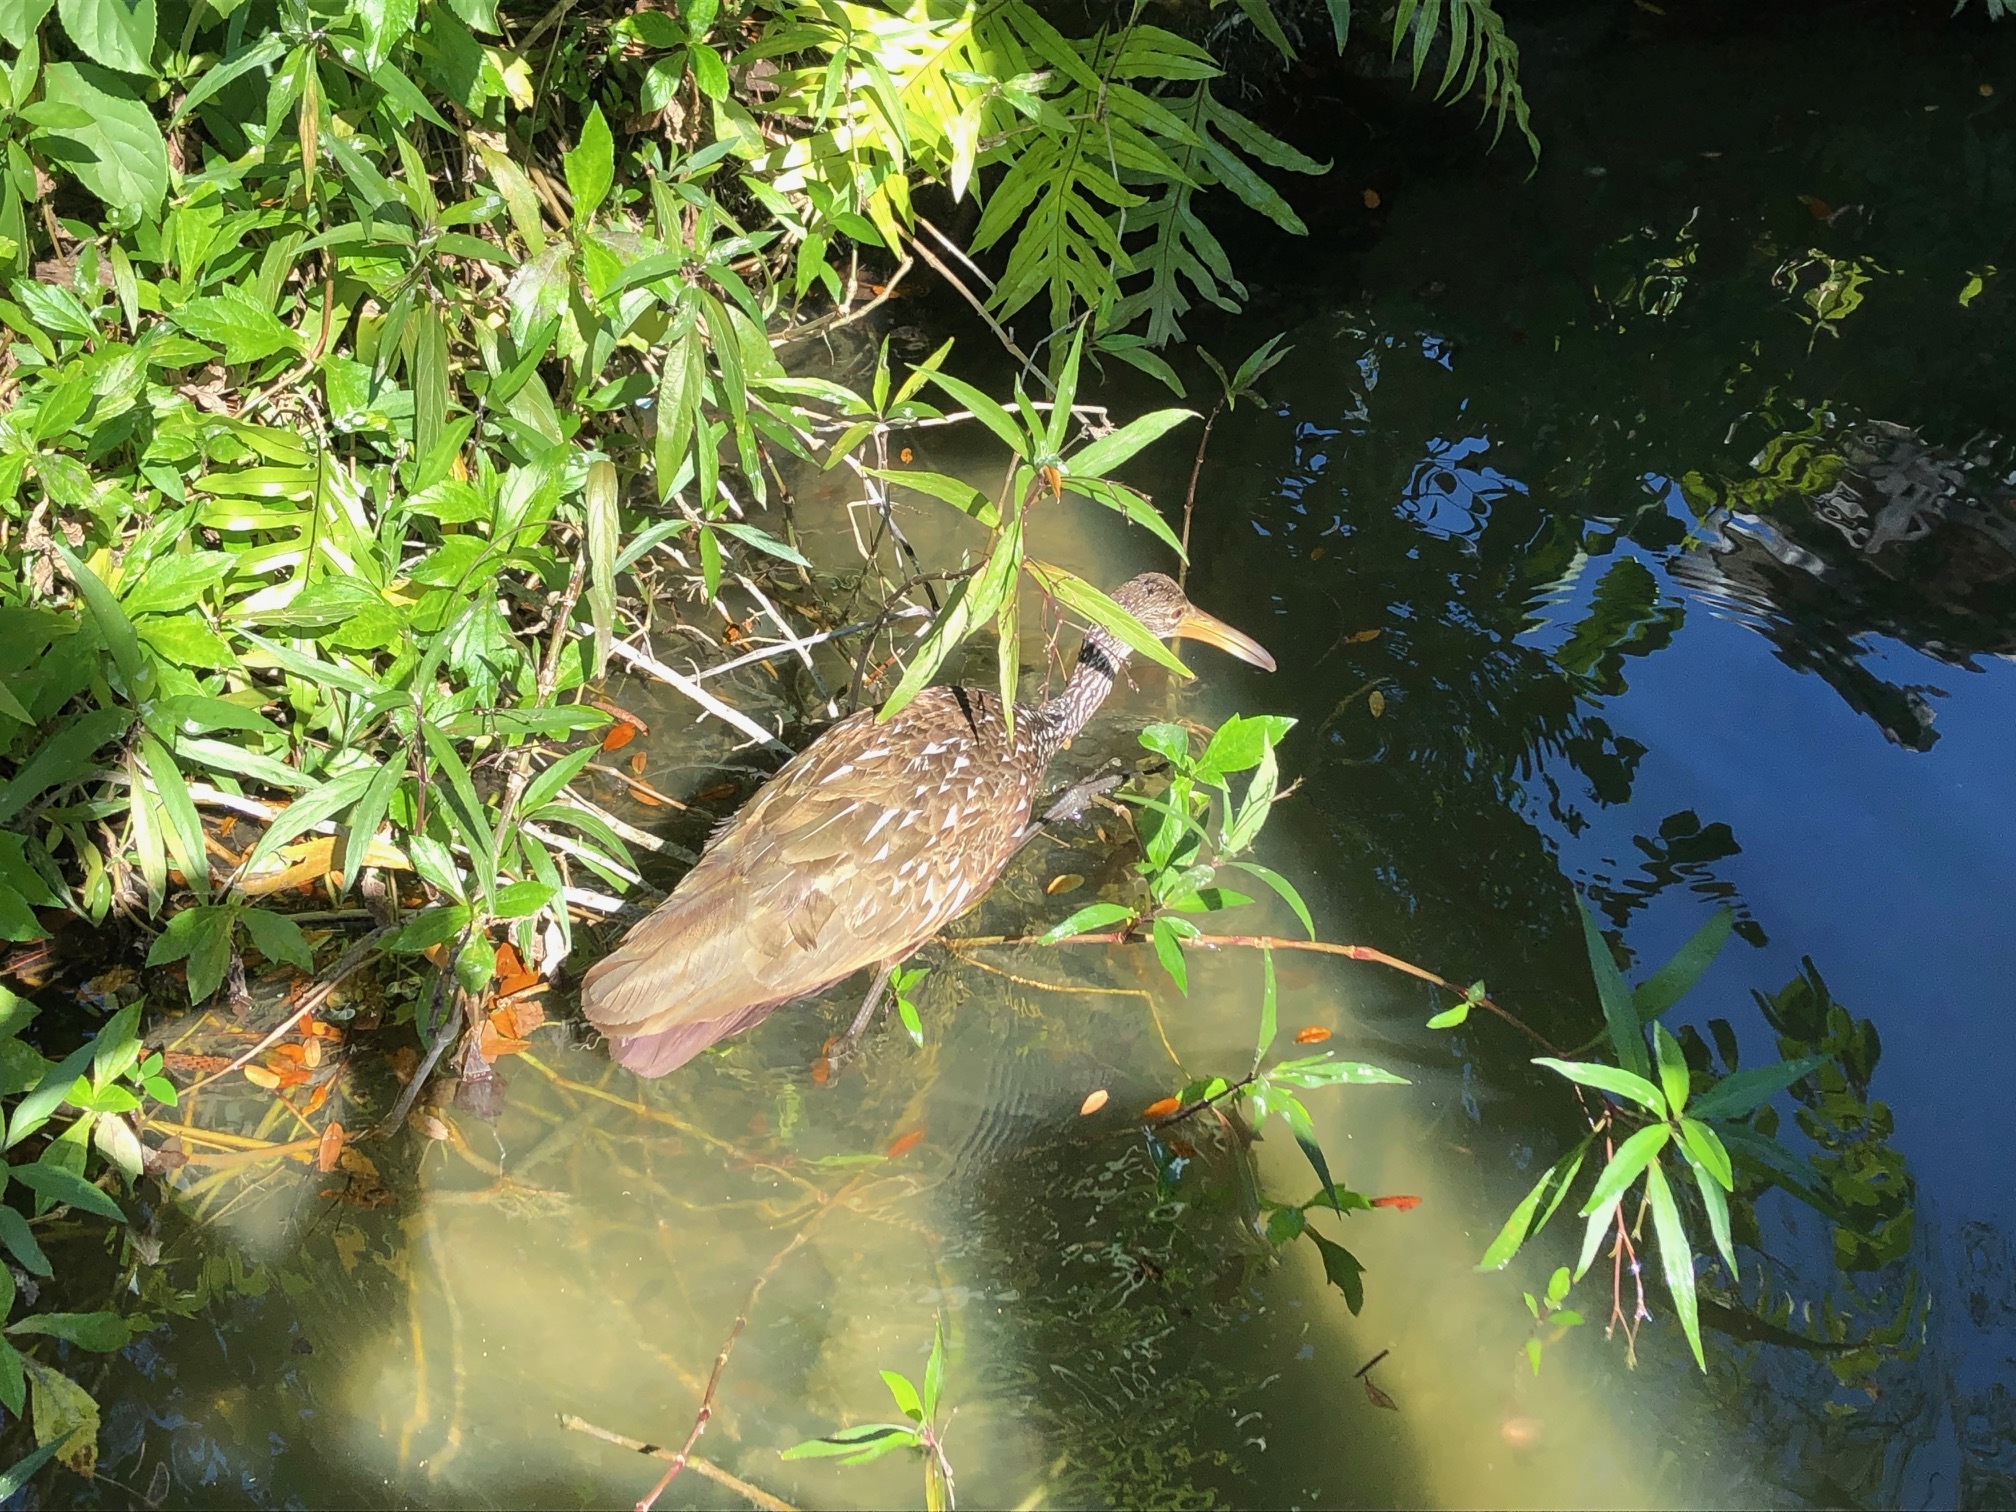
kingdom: Animalia
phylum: Chordata
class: Aves
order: Gruiformes
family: Aramidae
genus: Aramus
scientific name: Aramus guarauna
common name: Limpkin
